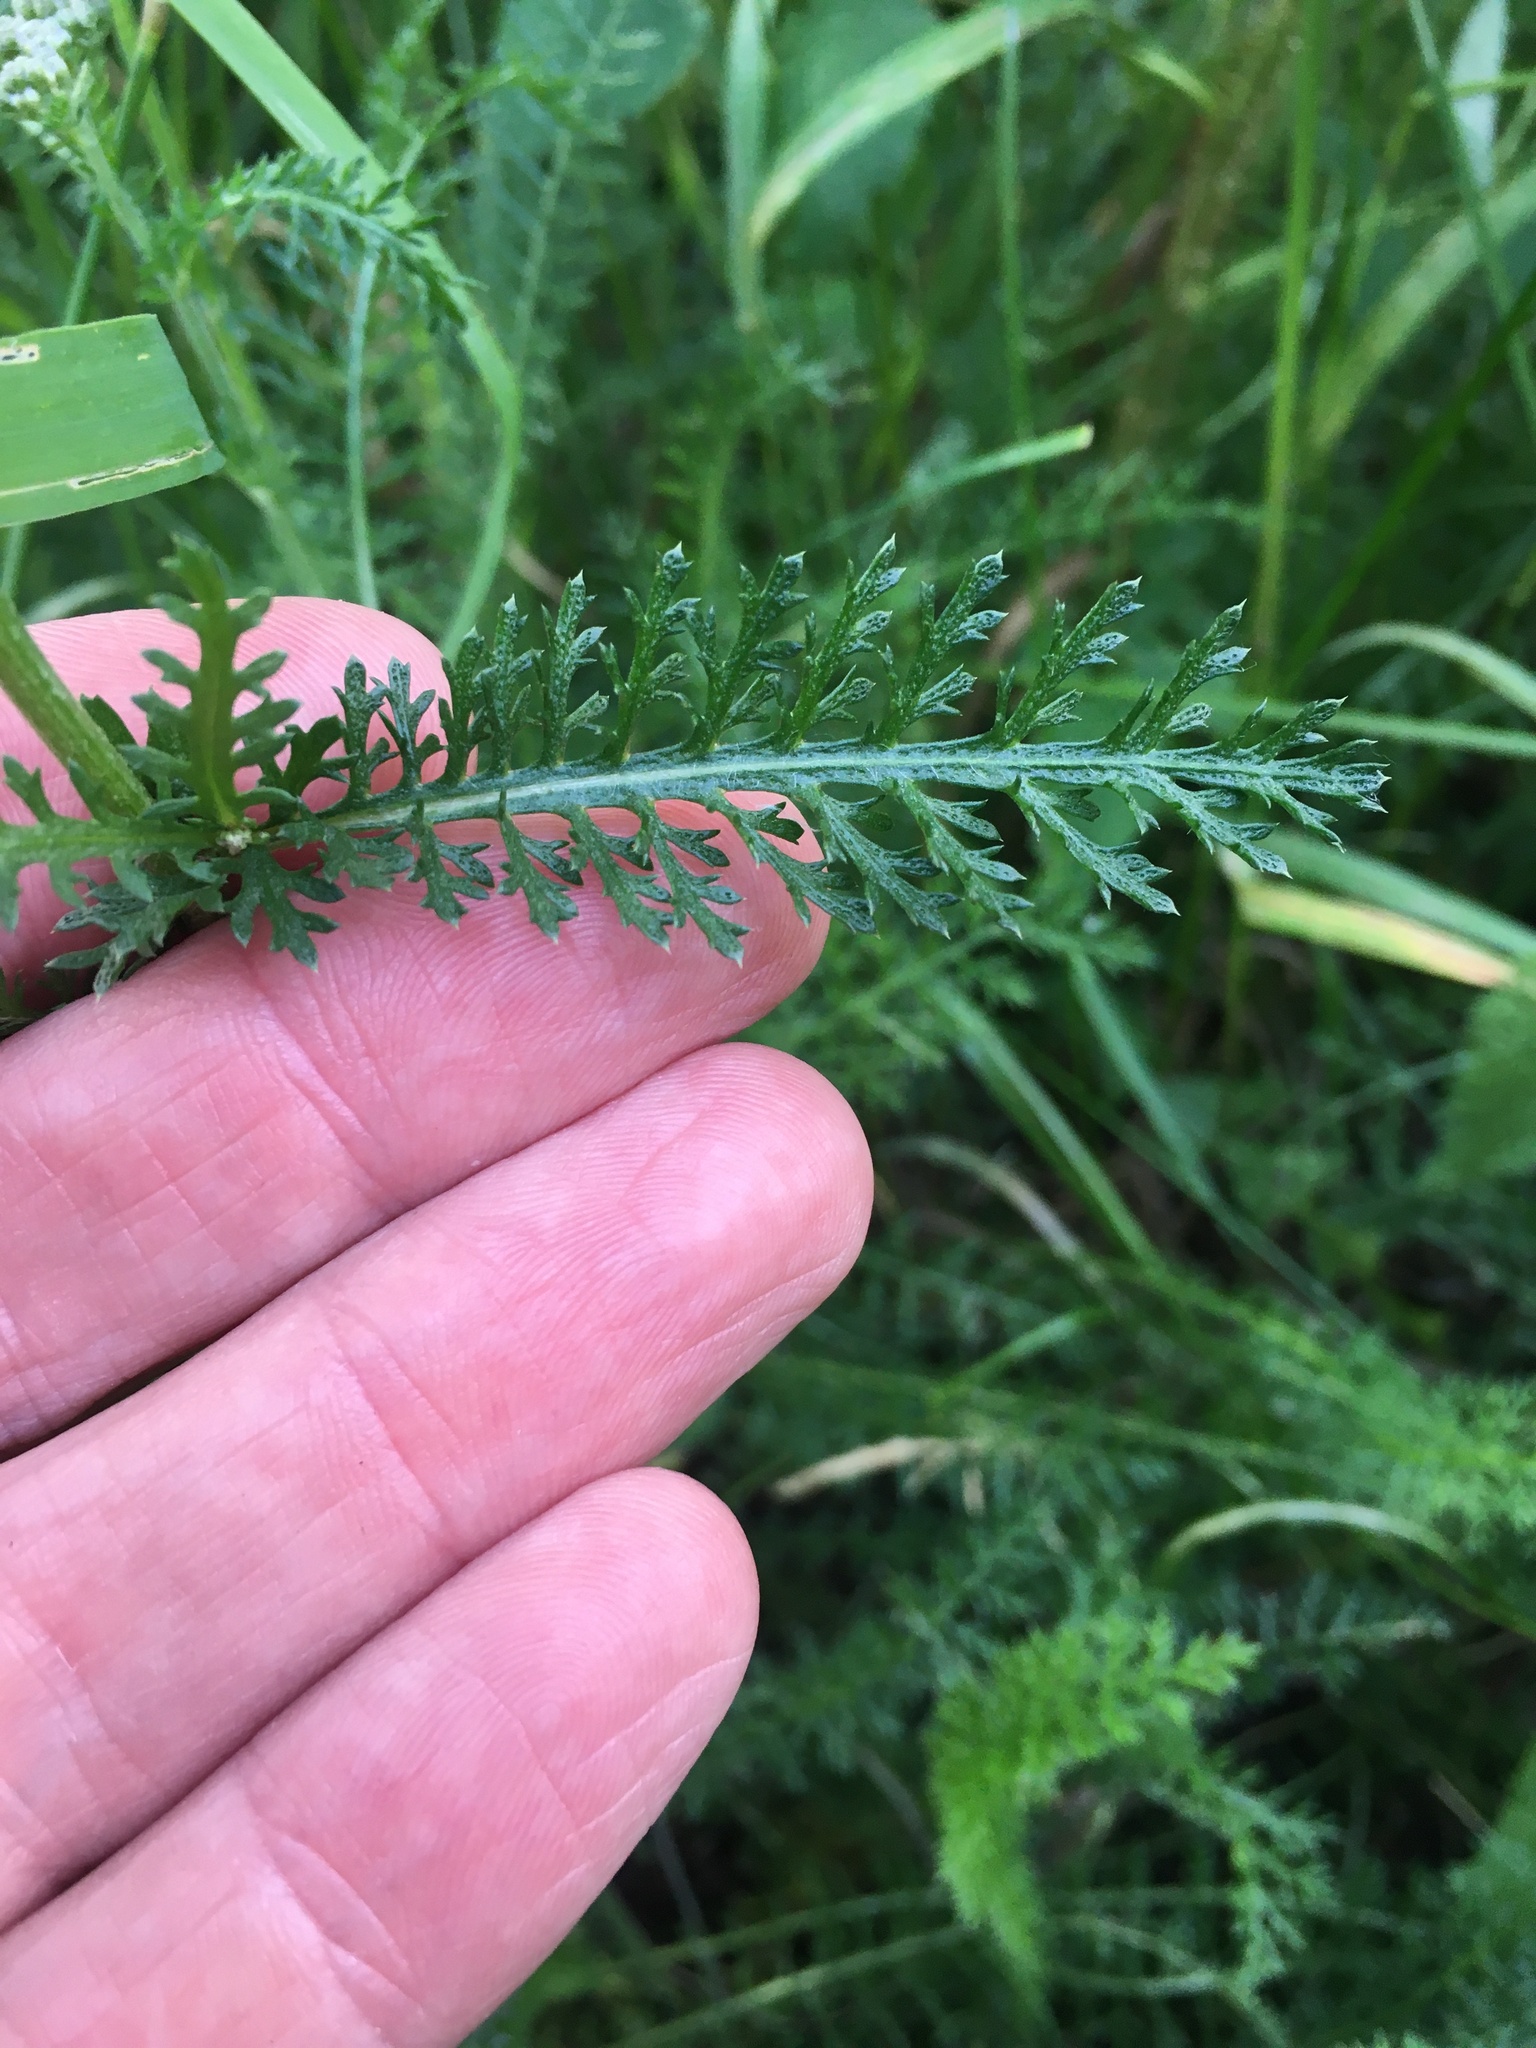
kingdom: Plantae
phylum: Tracheophyta
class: Magnoliopsida
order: Asterales
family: Asteraceae
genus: Achillea
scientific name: Achillea millefolium
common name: Yarrow
